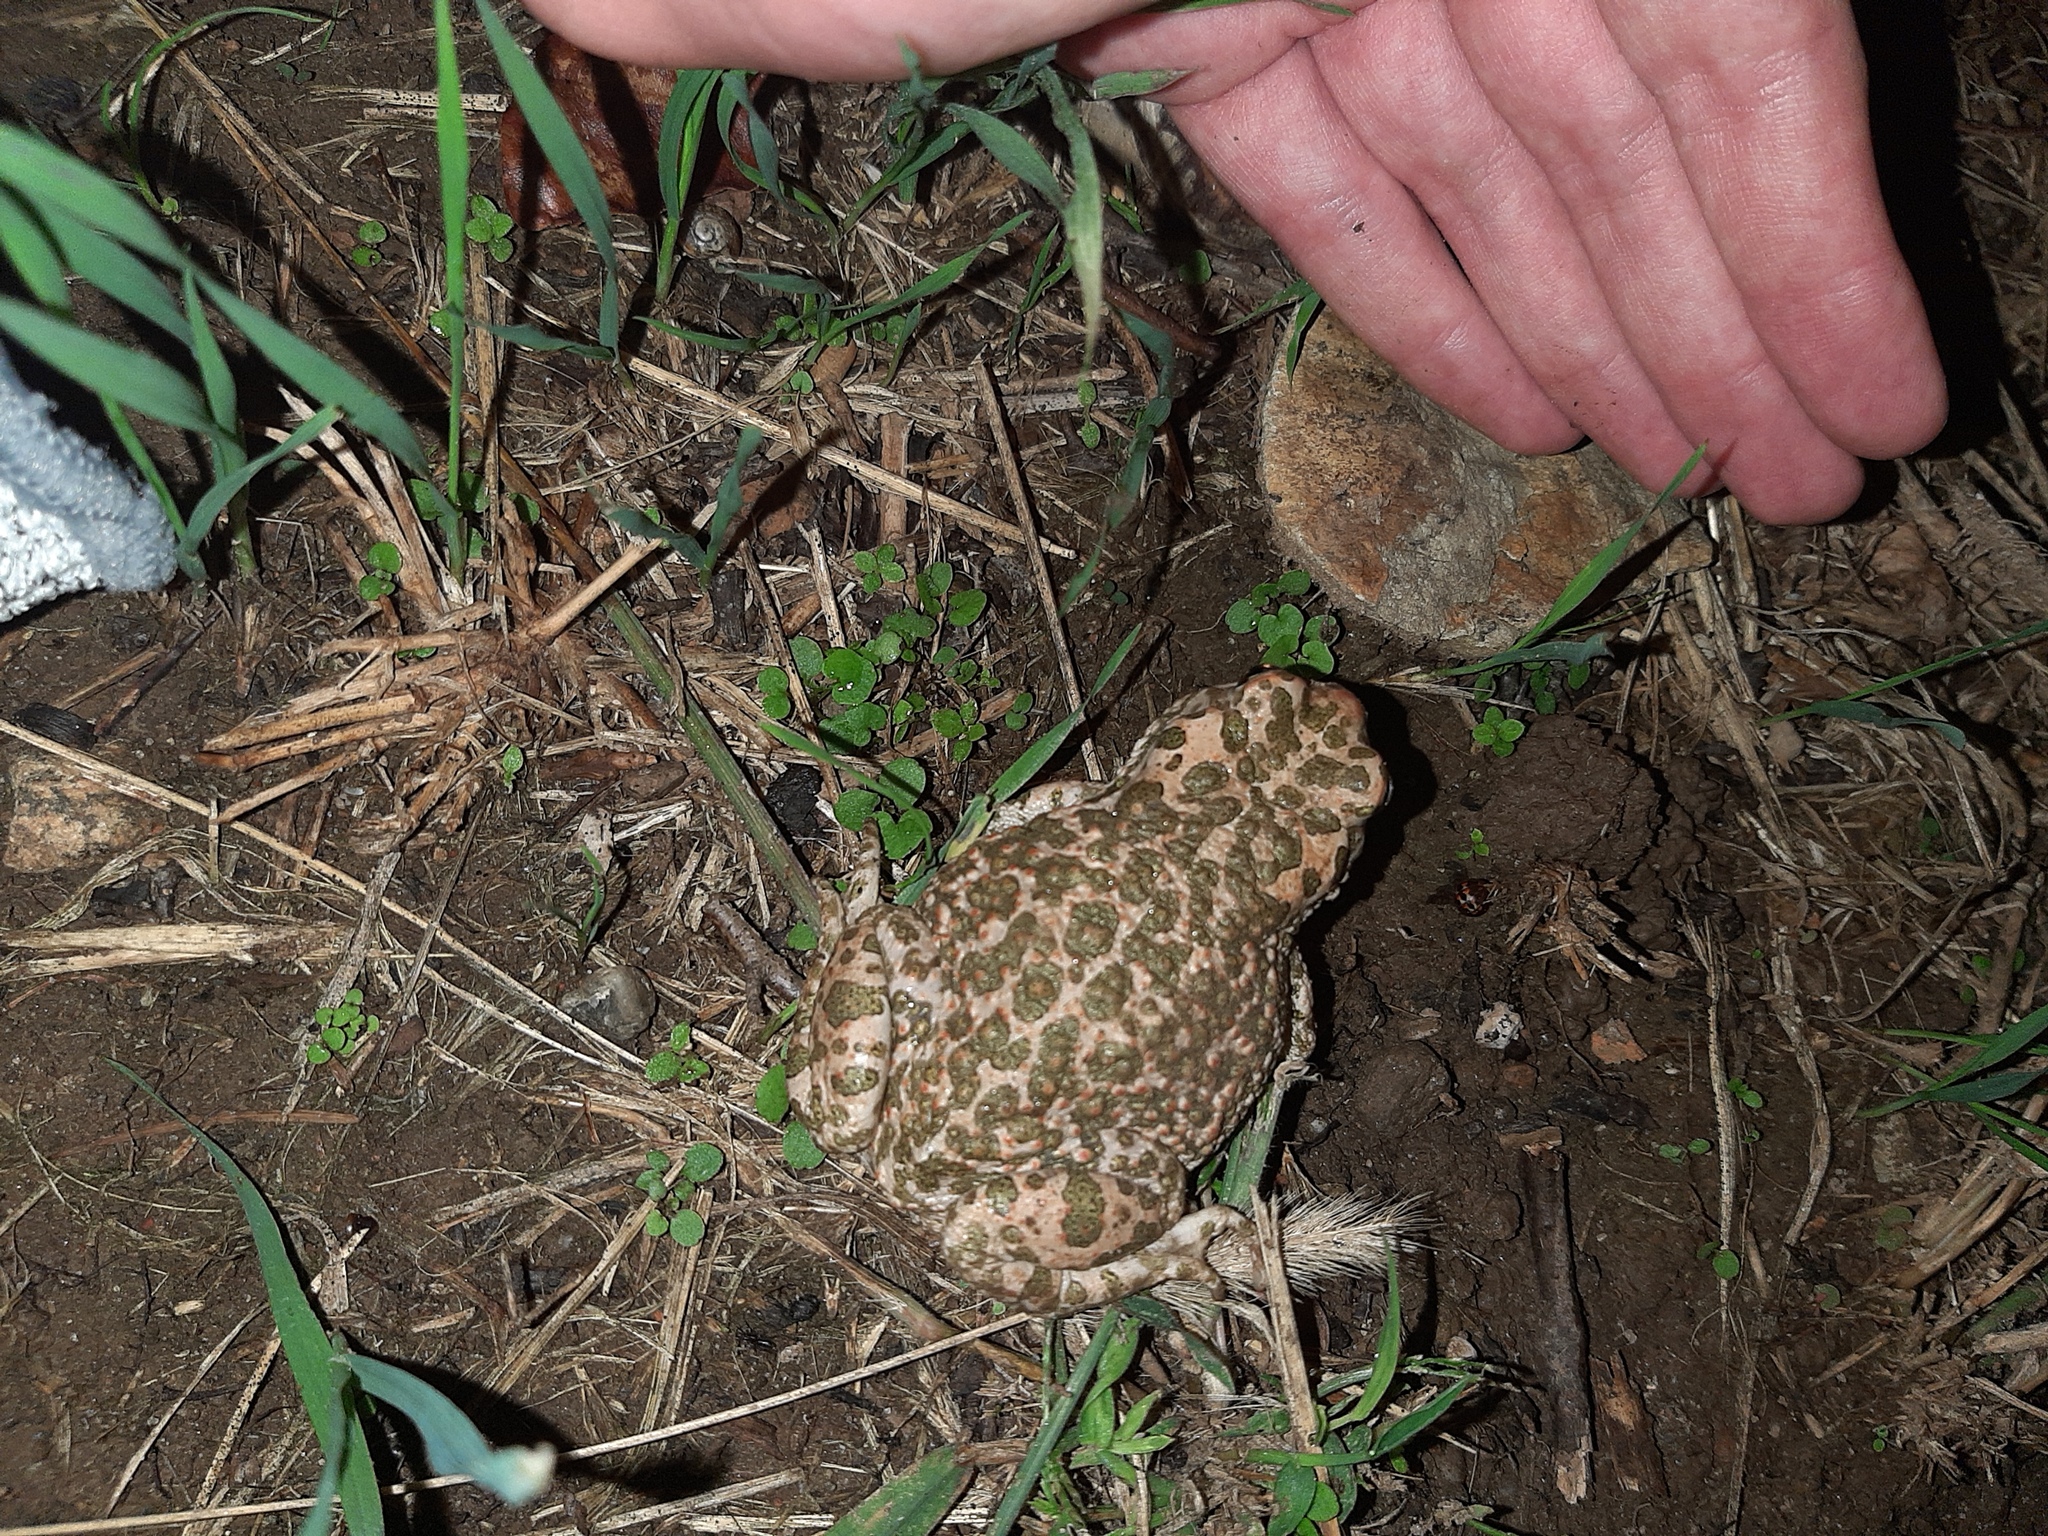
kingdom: Animalia
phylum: Chordata
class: Amphibia
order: Anura
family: Bufonidae
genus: Bufotes
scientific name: Bufotes viridis
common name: European green toad
